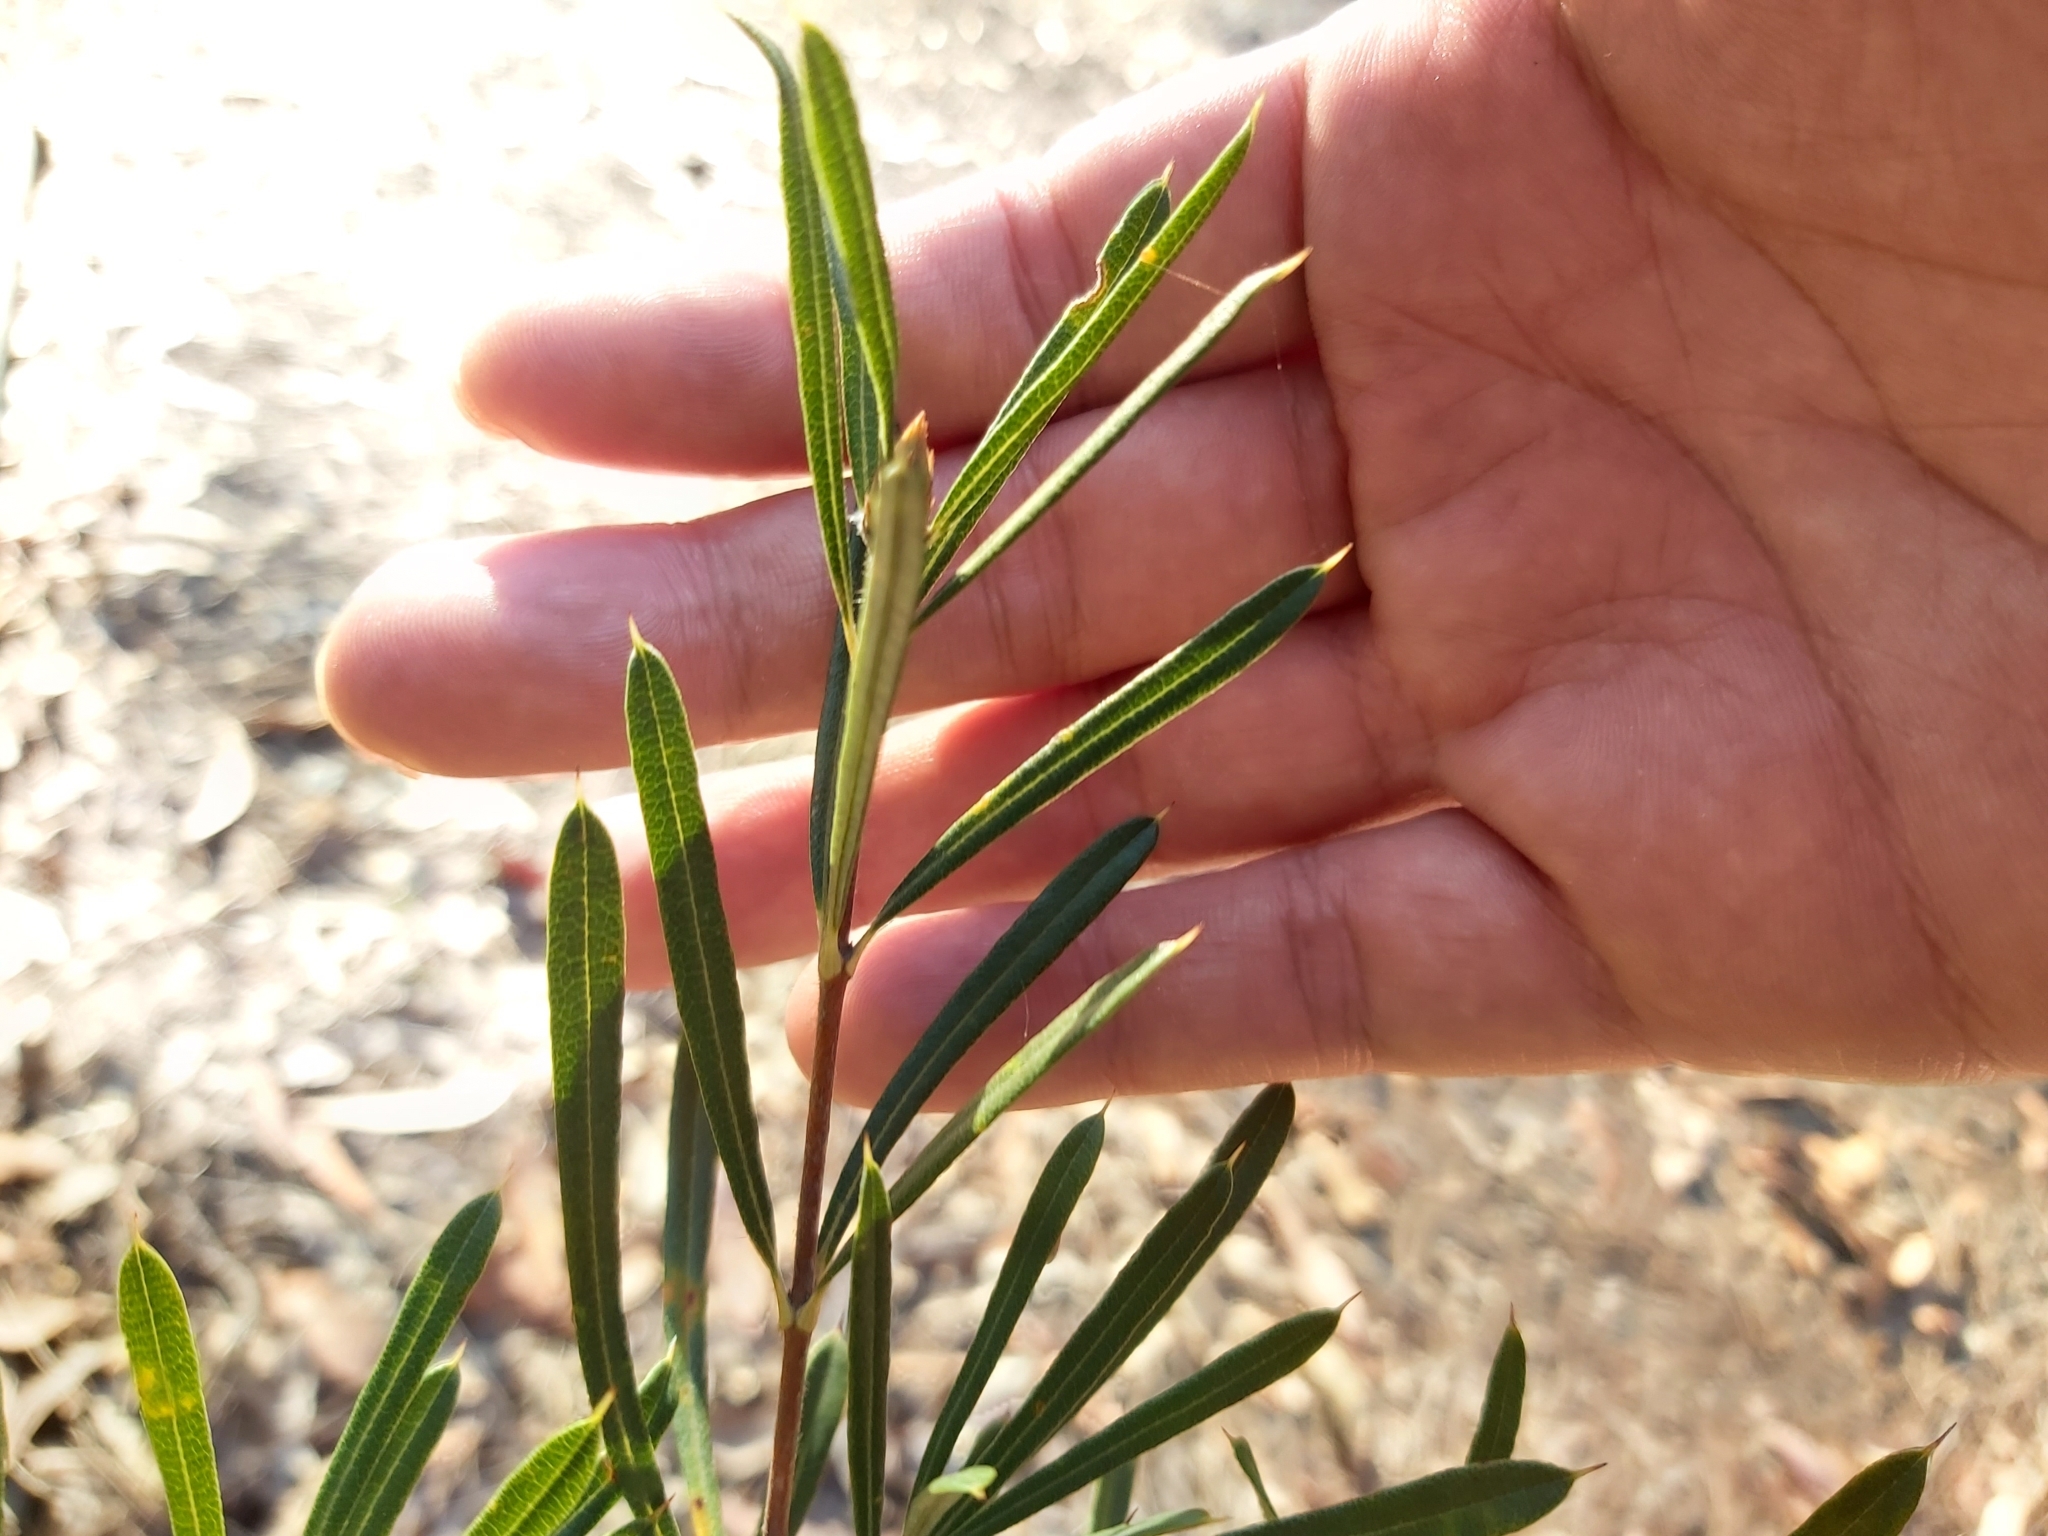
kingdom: Plantae
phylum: Tracheophyta
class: Magnoliopsida
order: Proteales
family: Proteaceae
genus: Lambertia
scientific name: Lambertia formosa
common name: Mountain-devil
